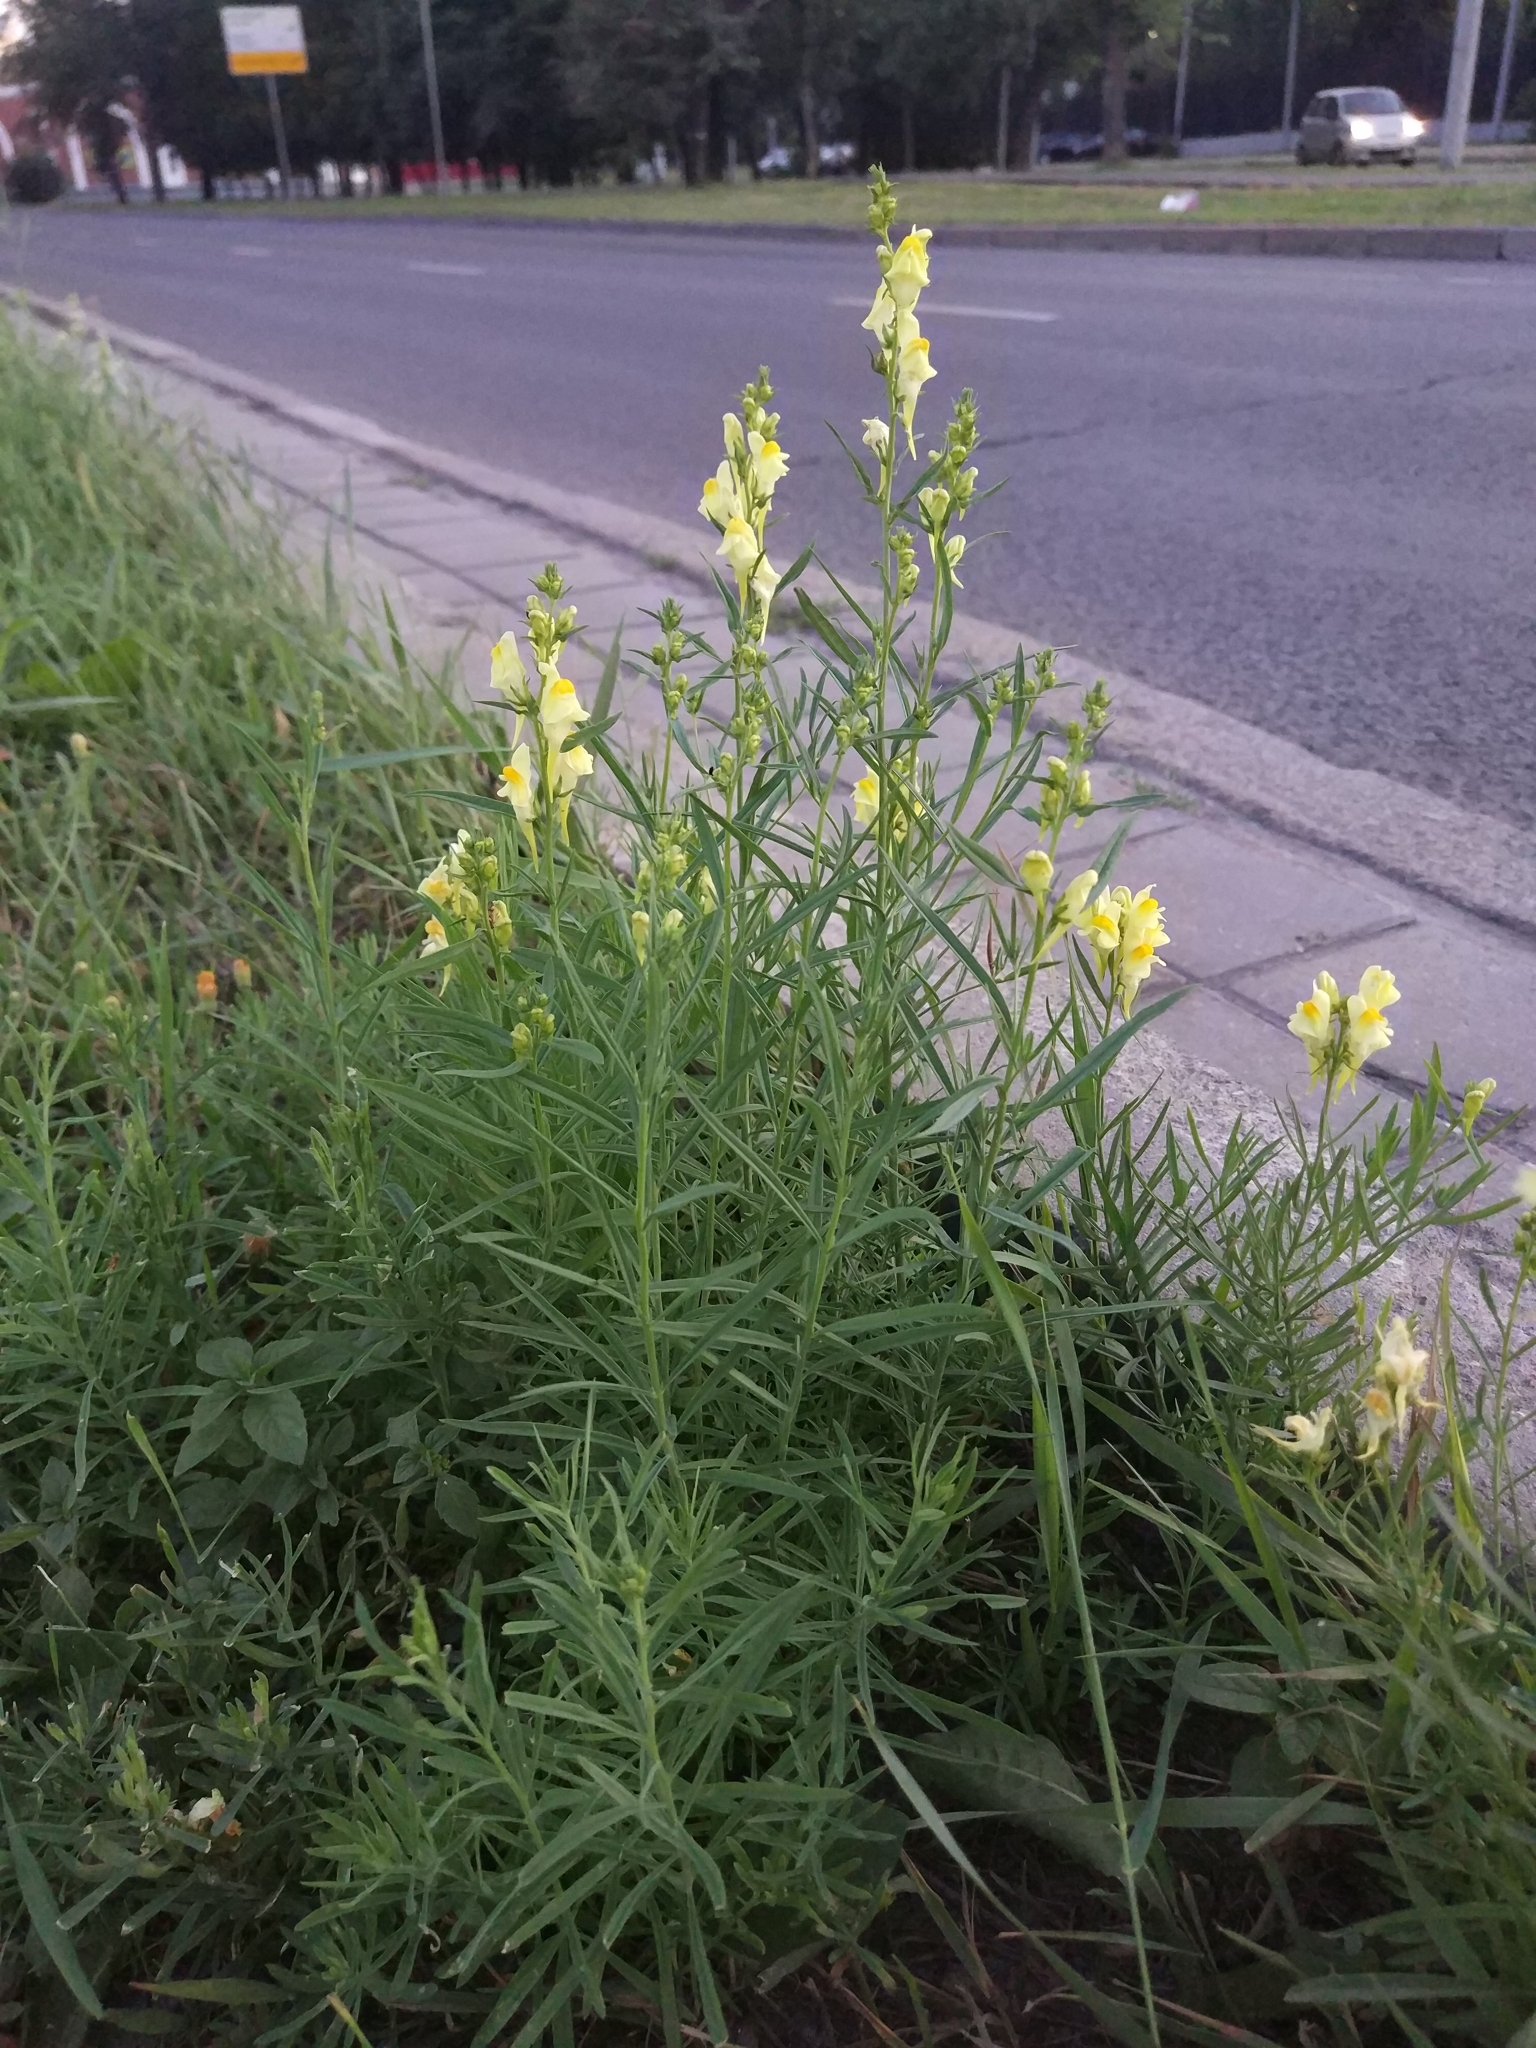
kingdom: Plantae
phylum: Tracheophyta
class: Magnoliopsida
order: Lamiales
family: Plantaginaceae
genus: Linaria
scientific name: Linaria vulgaris
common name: Butter and eggs
